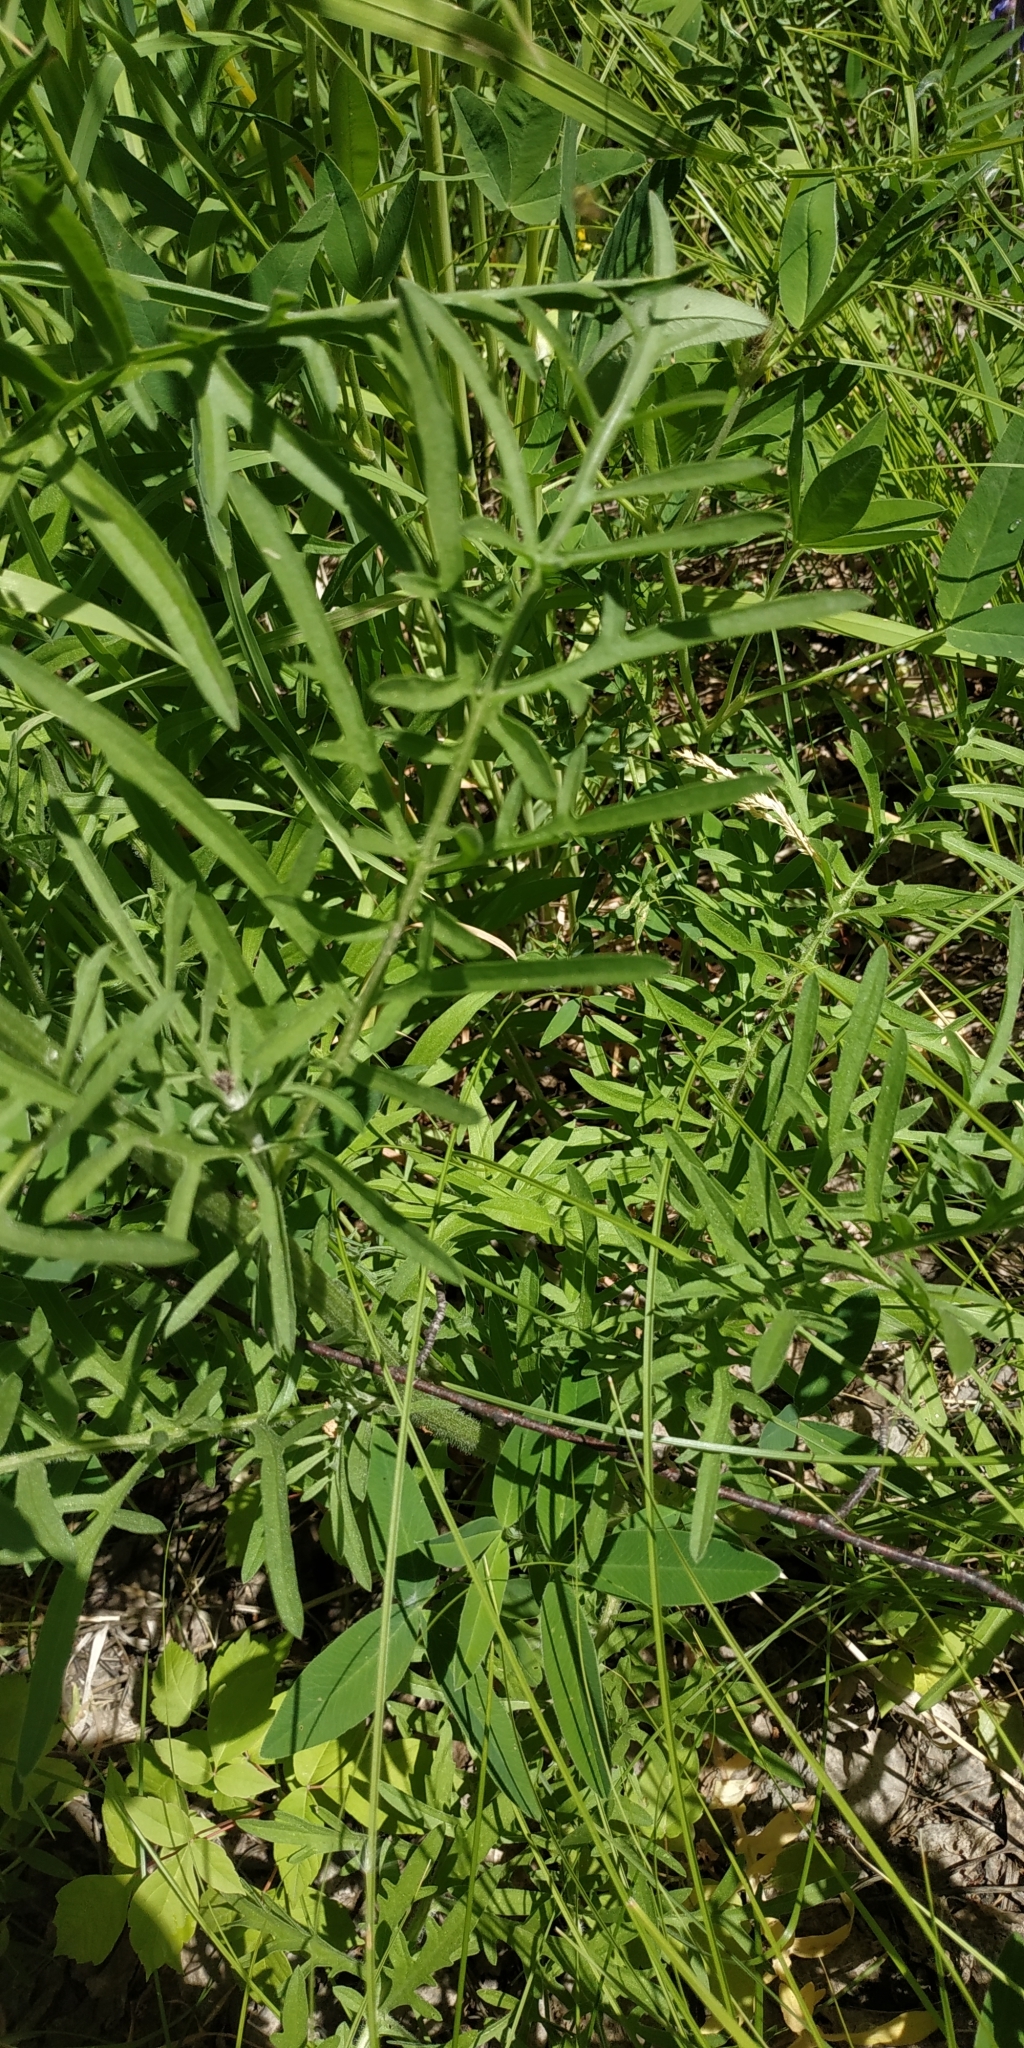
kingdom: Plantae
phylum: Tracheophyta
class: Magnoliopsida
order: Asterales
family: Asteraceae
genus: Centaurea
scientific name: Centaurea scabiosa
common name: Greater knapweed
